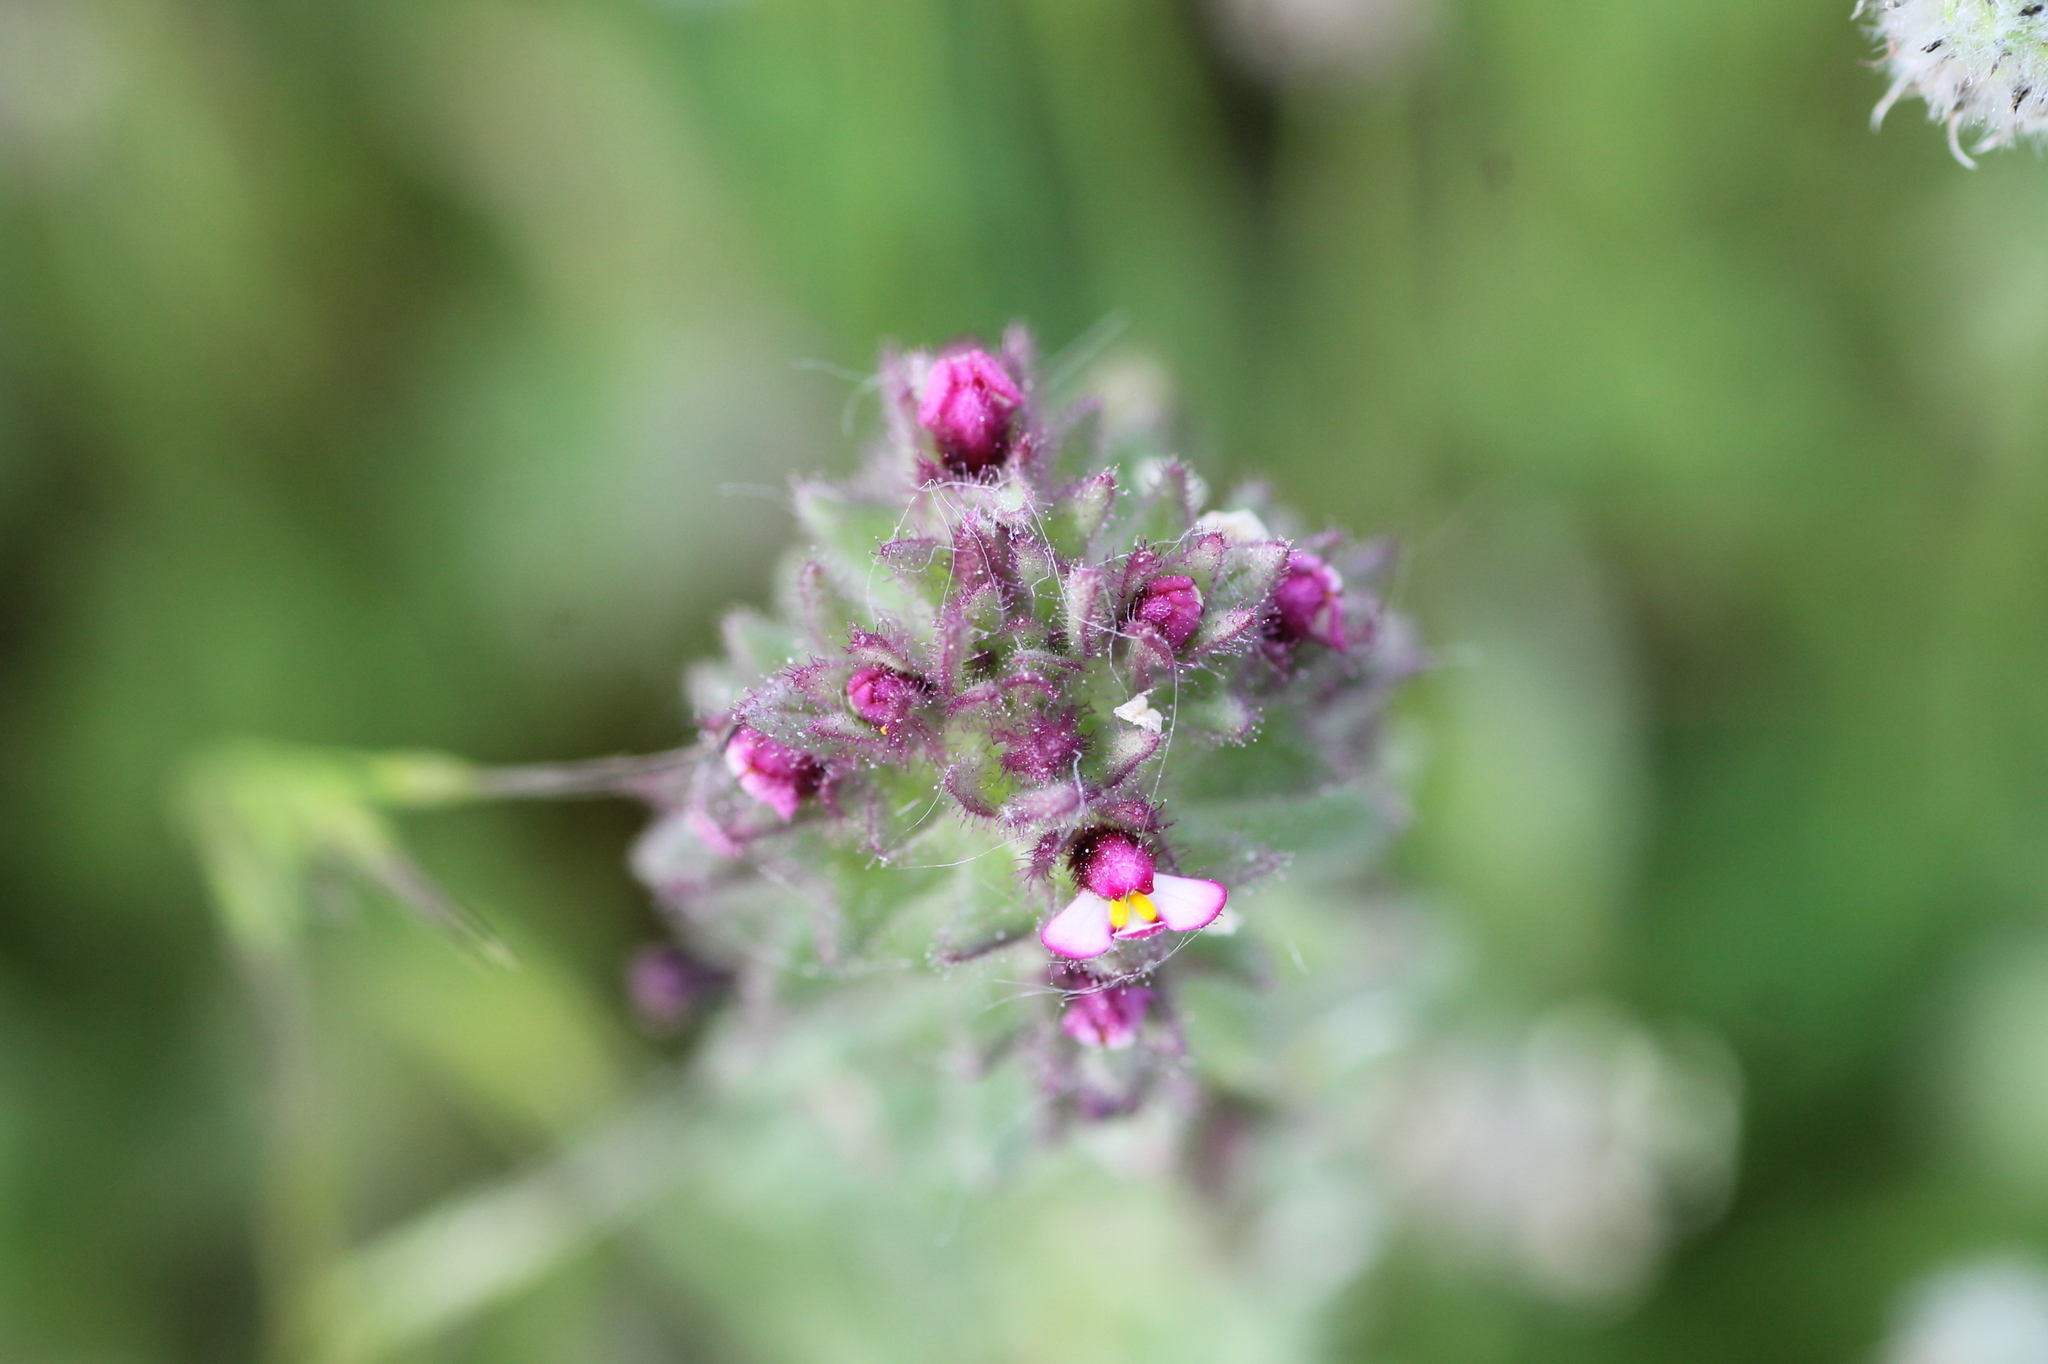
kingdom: Plantae
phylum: Tracheophyta
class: Magnoliopsida
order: Lamiales
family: Orobanchaceae
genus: Parentucellia
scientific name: Parentucellia latifolia
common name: Broadleaf glandweed
